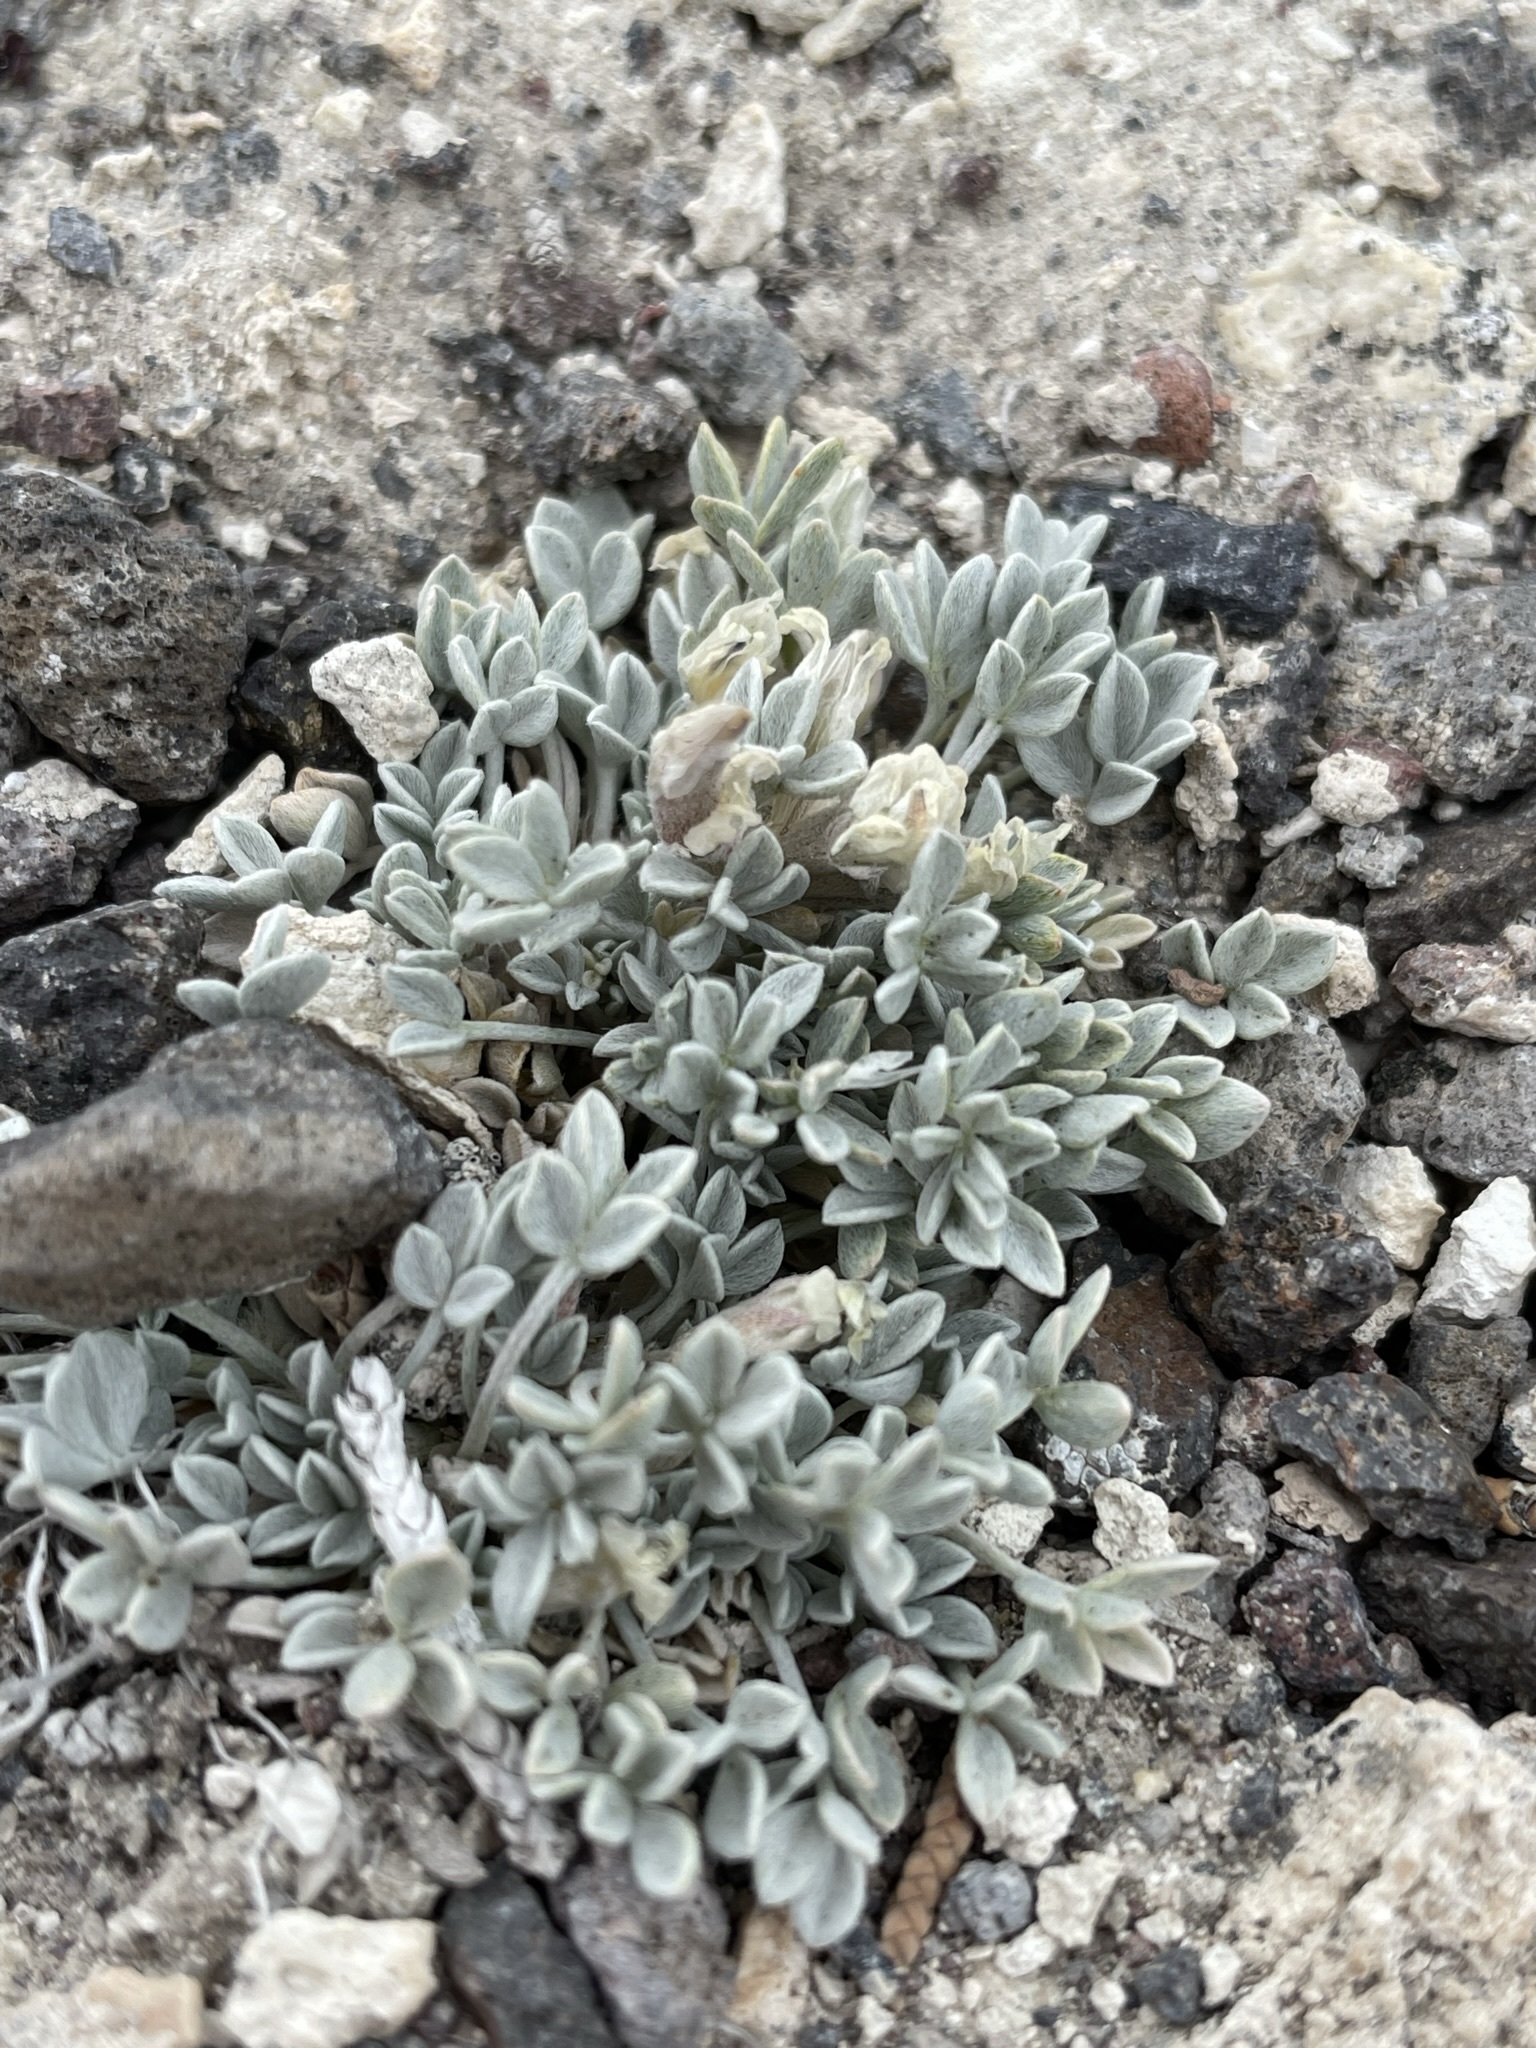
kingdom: Plantae
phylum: Tracheophyta
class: Magnoliopsida
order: Fabales
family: Fabaceae
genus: Astragalus
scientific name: Astragalus calycosus
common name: King's milkvetch
